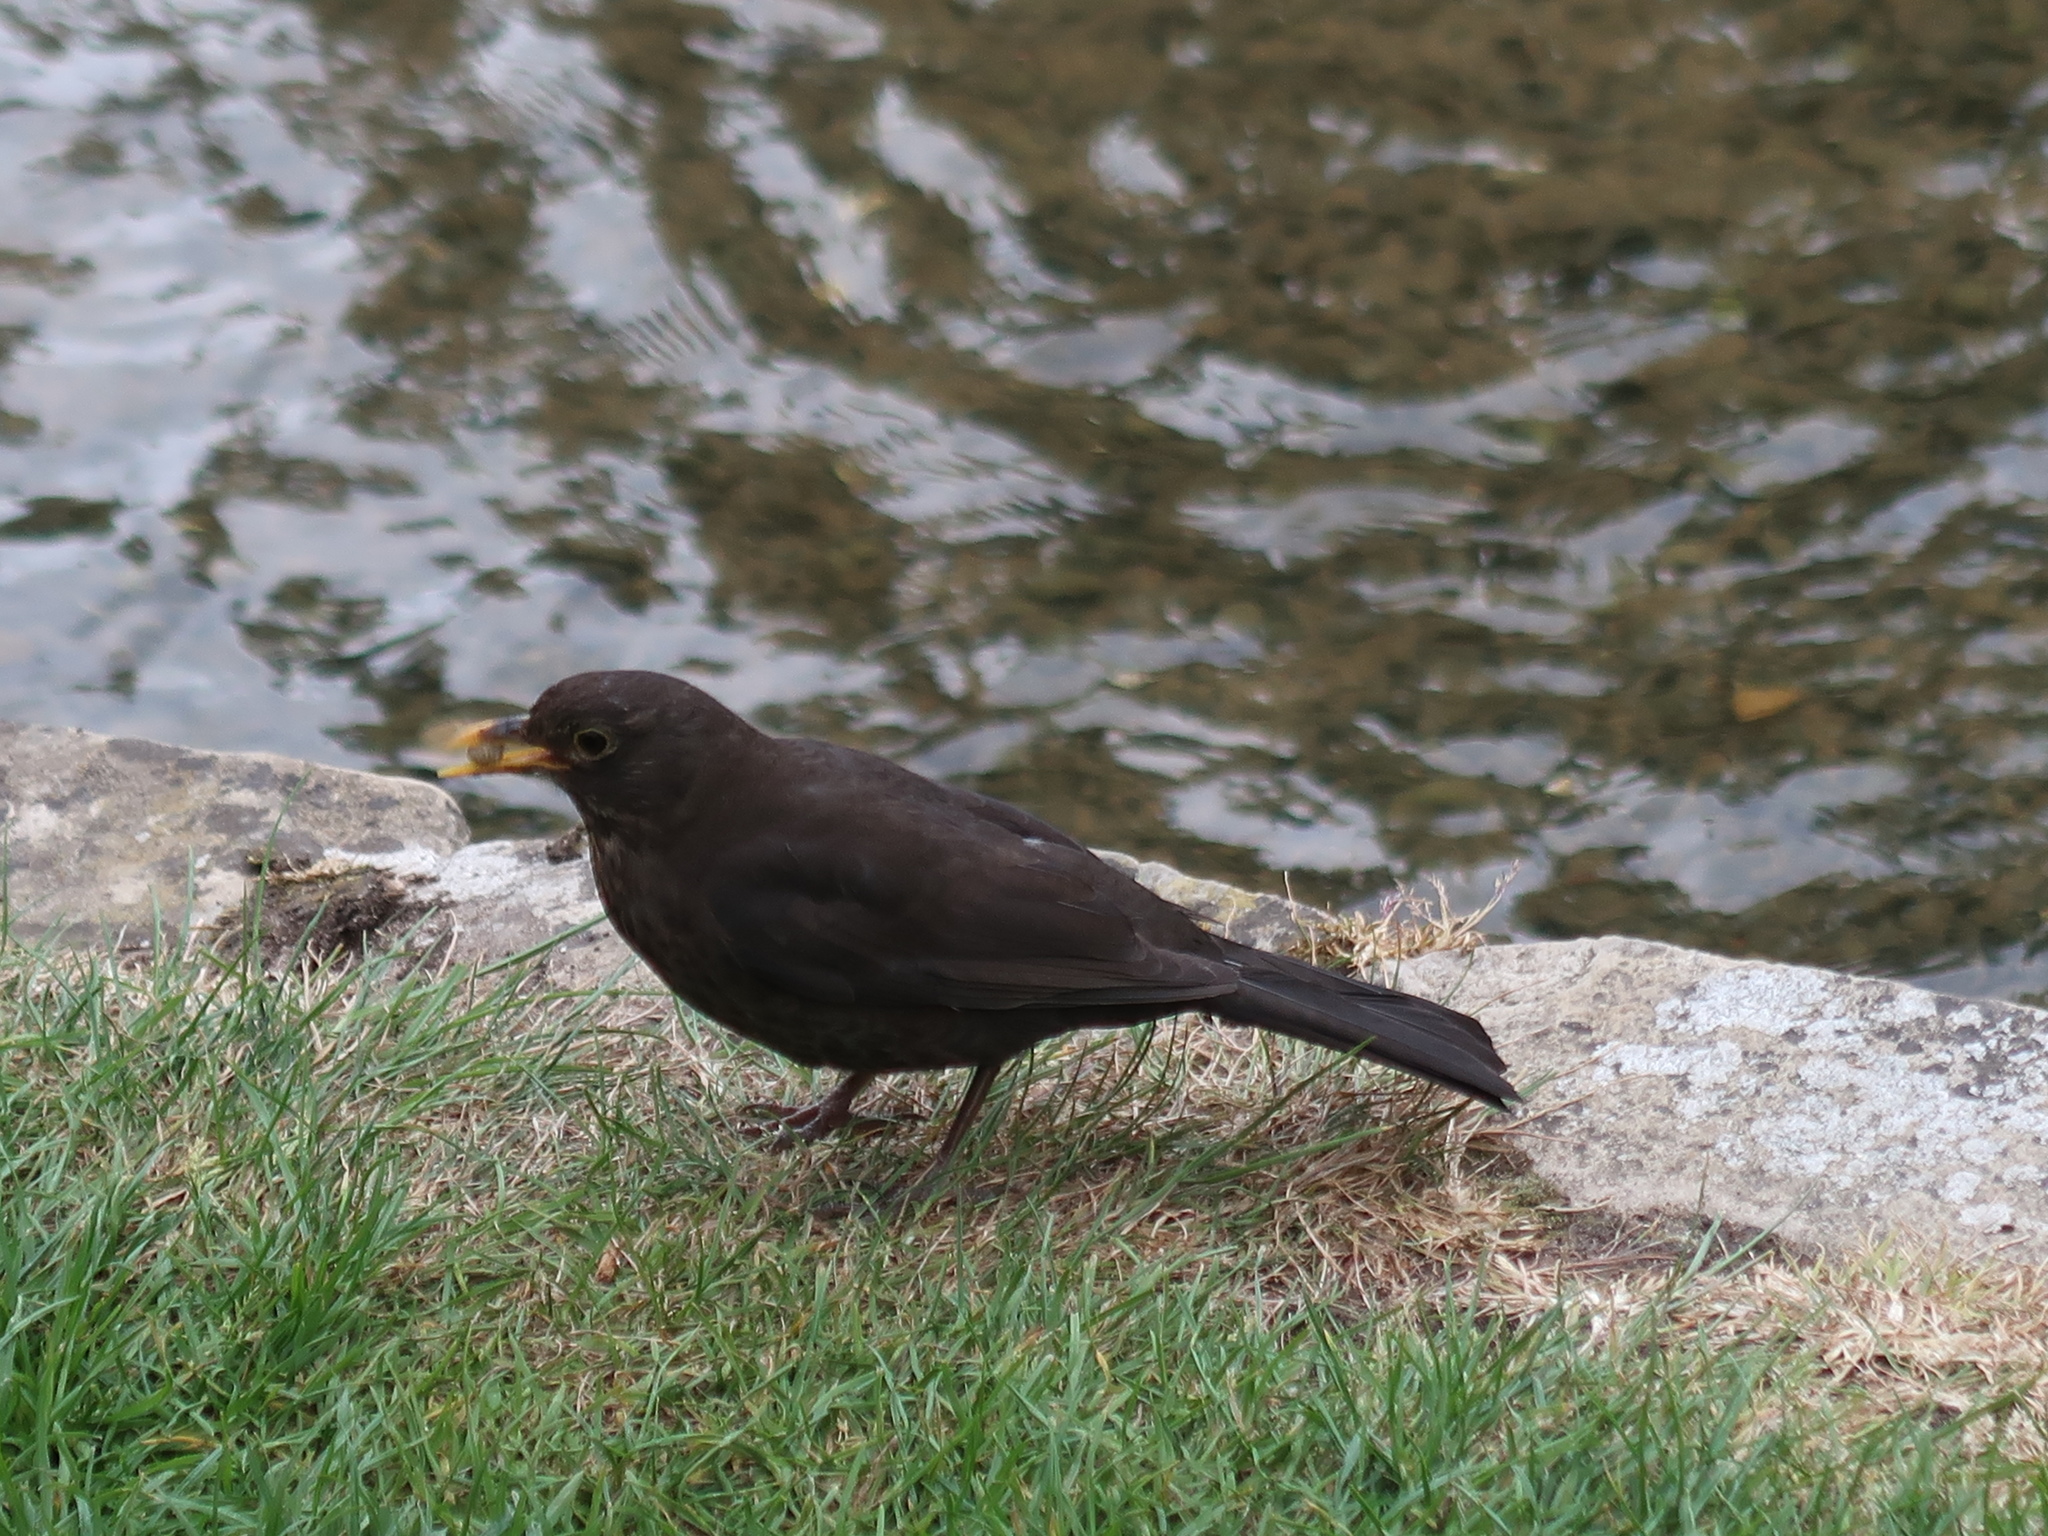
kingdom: Animalia
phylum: Chordata
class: Aves
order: Passeriformes
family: Turdidae
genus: Turdus
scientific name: Turdus merula
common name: Common blackbird
